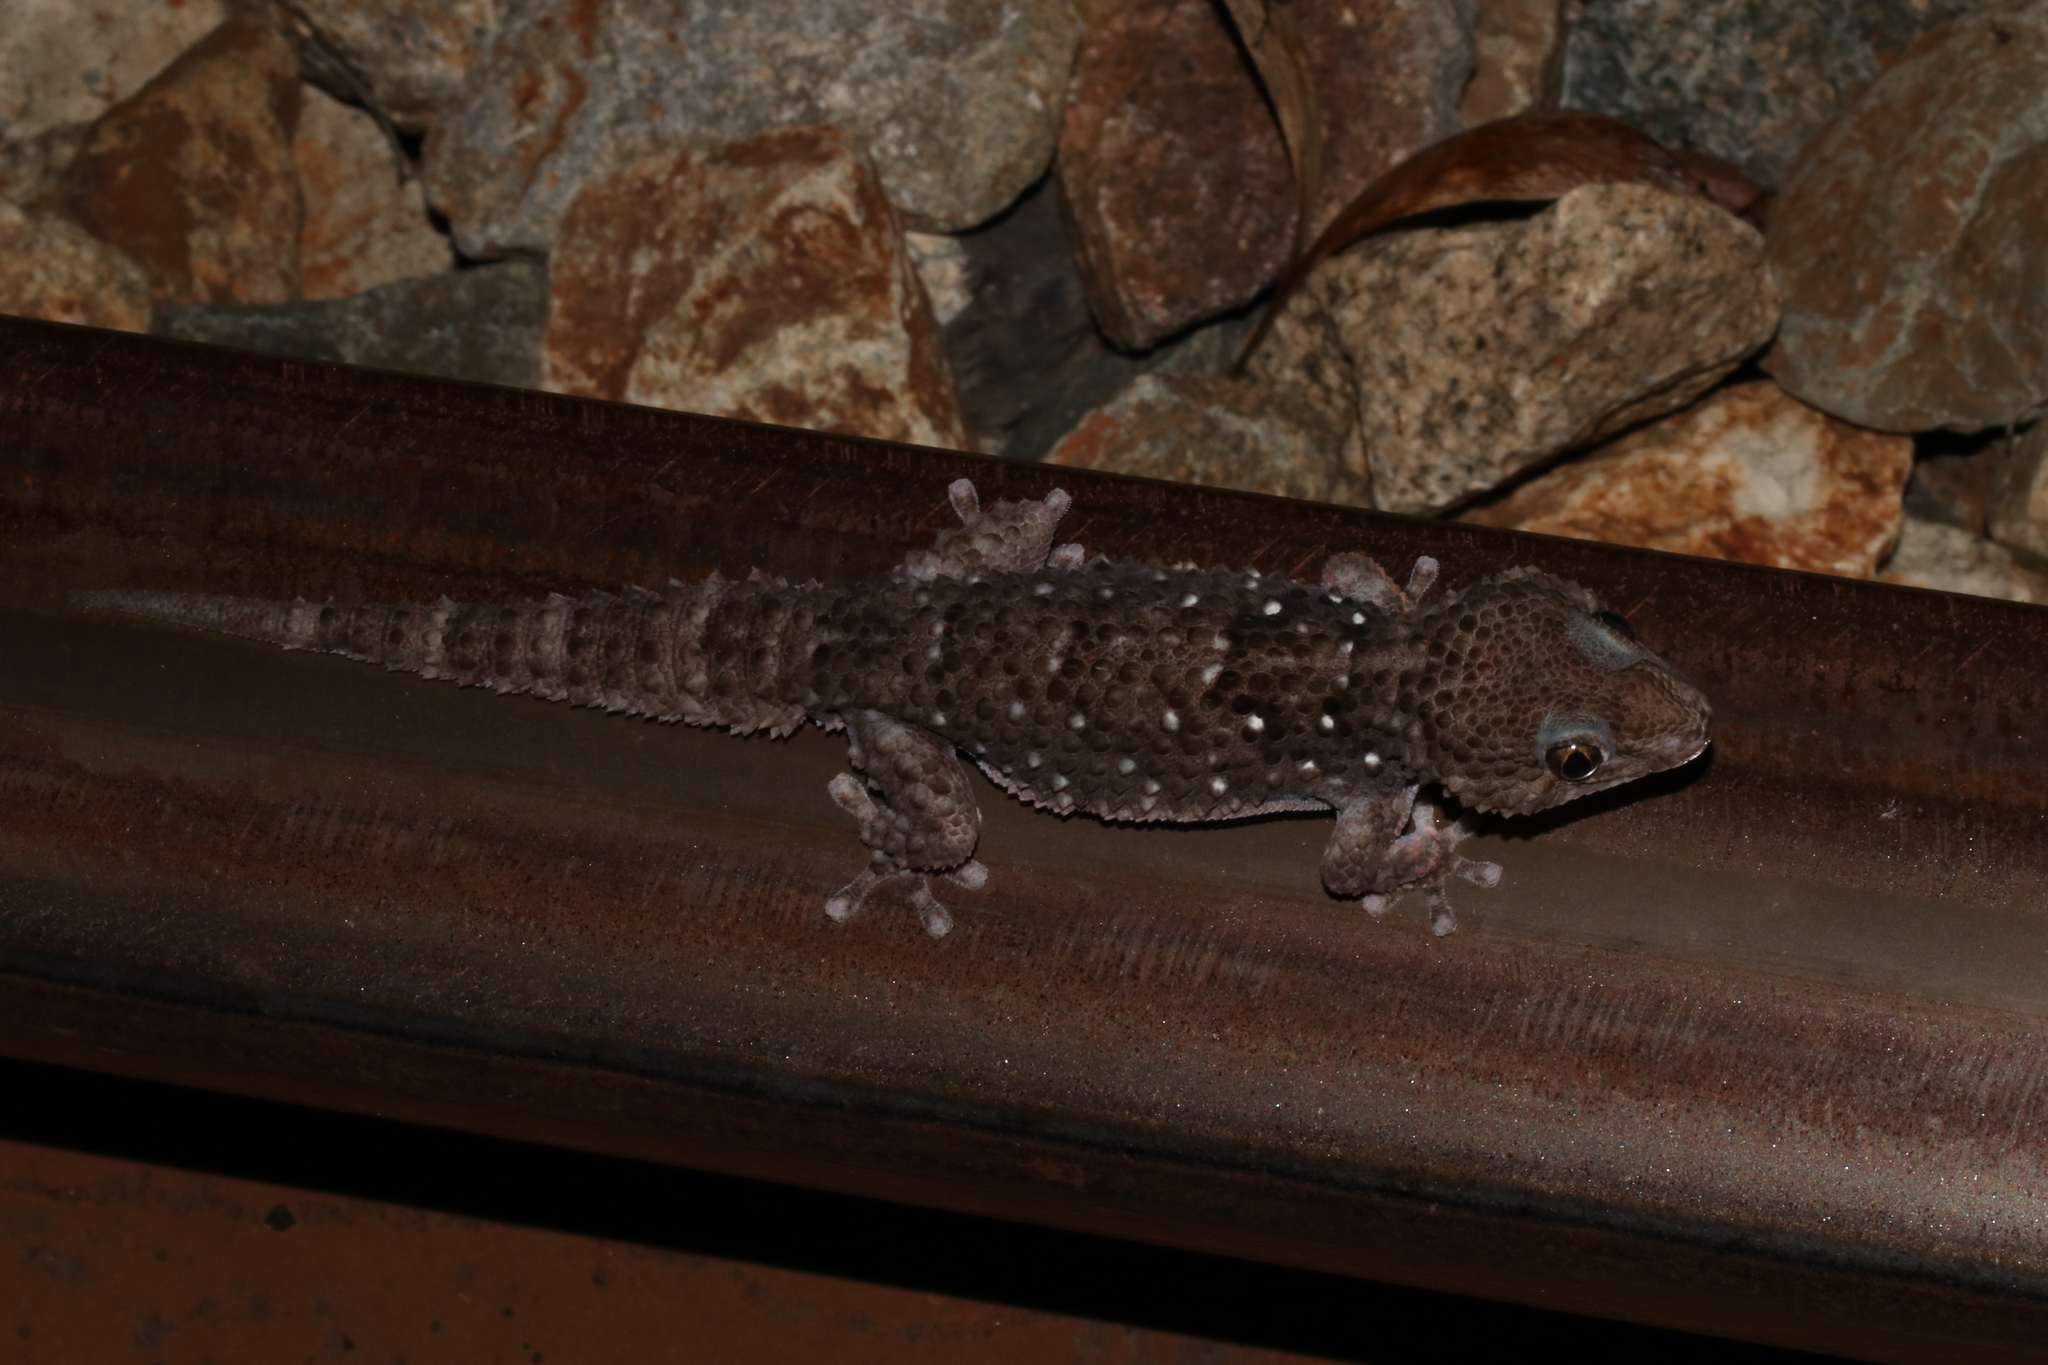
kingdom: Animalia
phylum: Chordata
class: Squamata
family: Gekkonidae
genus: Chondrodactylus
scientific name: Chondrodactylus turneri
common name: Turner’s gecko
